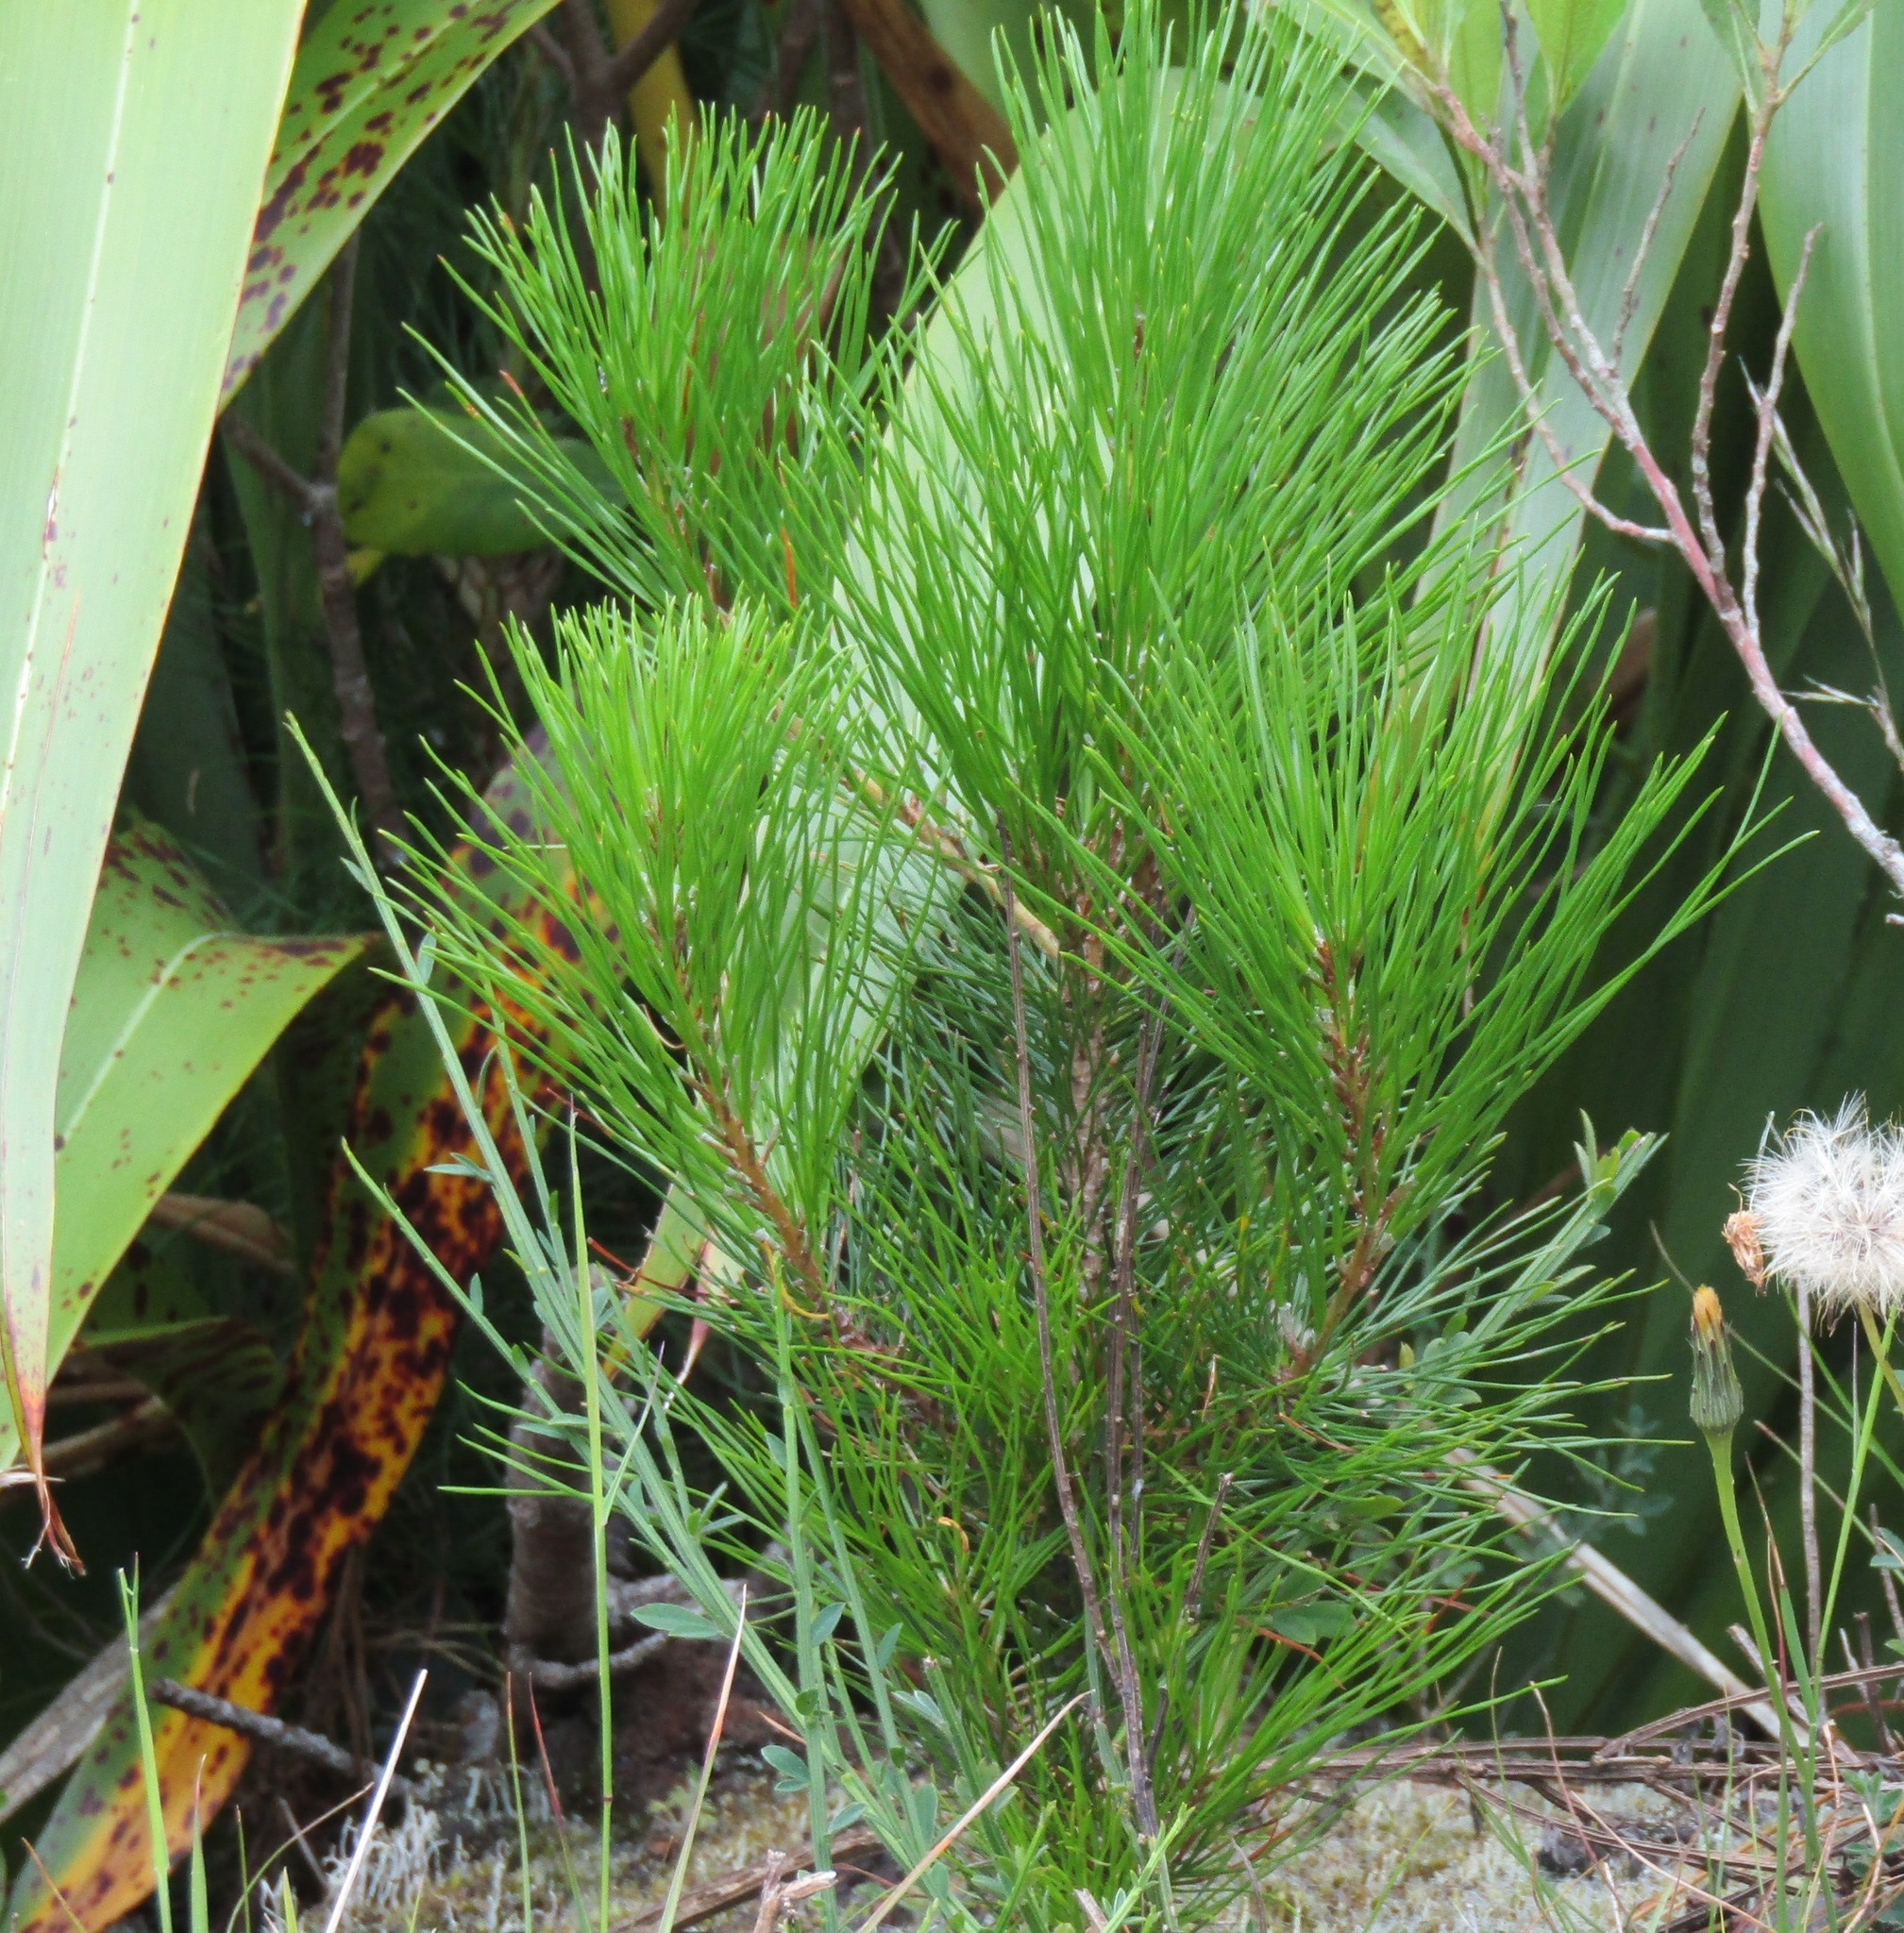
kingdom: Plantae
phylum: Tracheophyta
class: Pinopsida
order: Pinales
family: Pinaceae
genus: Pinus
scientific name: Pinus radiata
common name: Monterey pine
